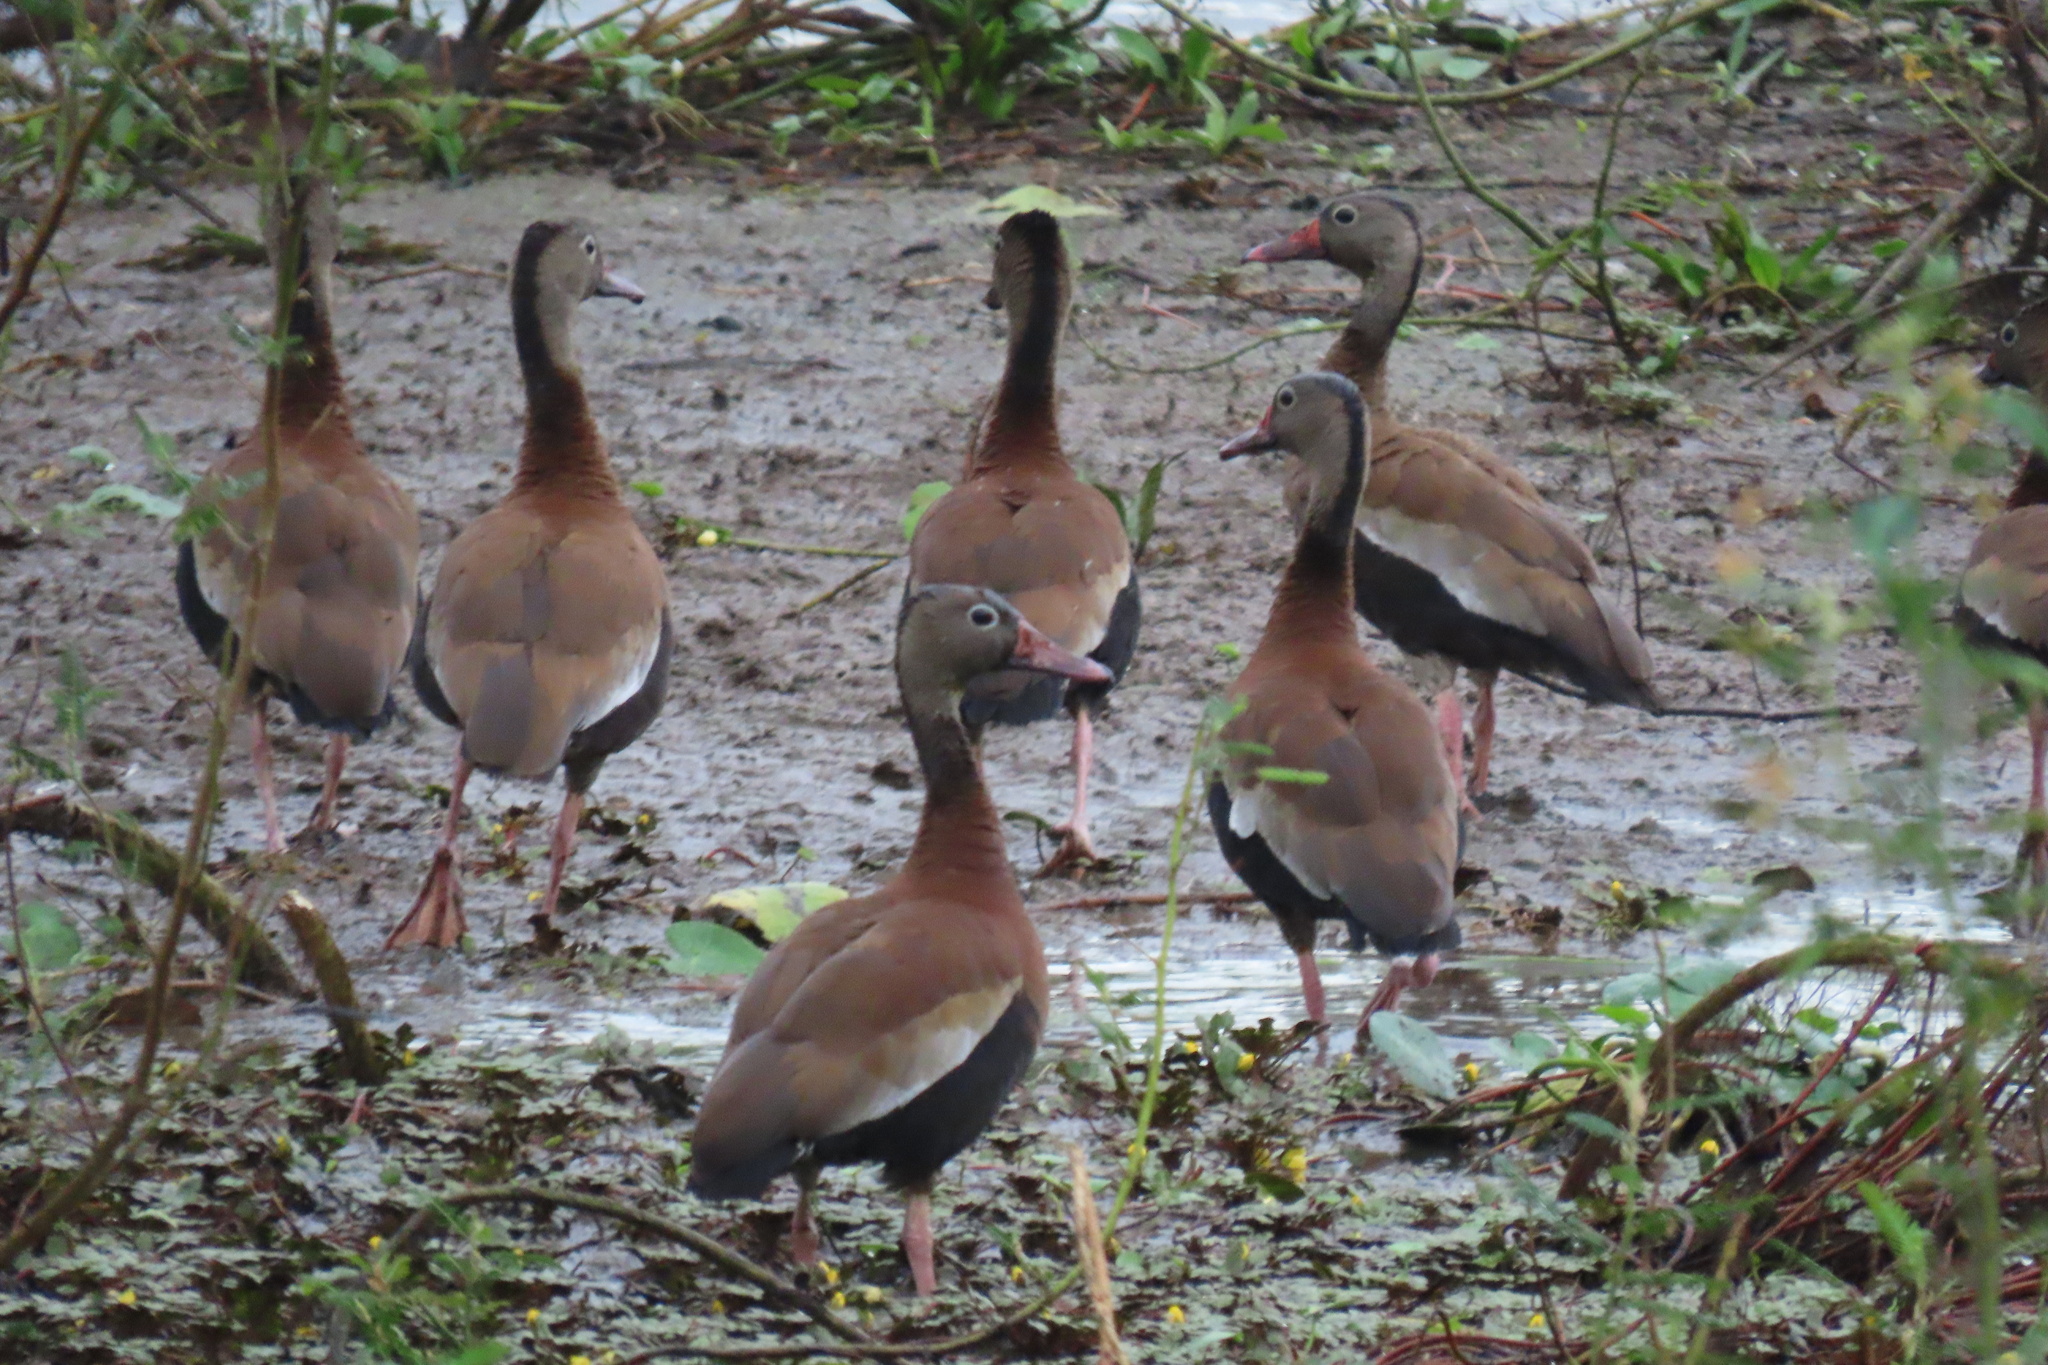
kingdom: Animalia
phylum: Chordata
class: Aves
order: Anseriformes
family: Anatidae
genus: Dendrocygna
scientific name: Dendrocygna autumnalis
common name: Black-bellied whistling duck
